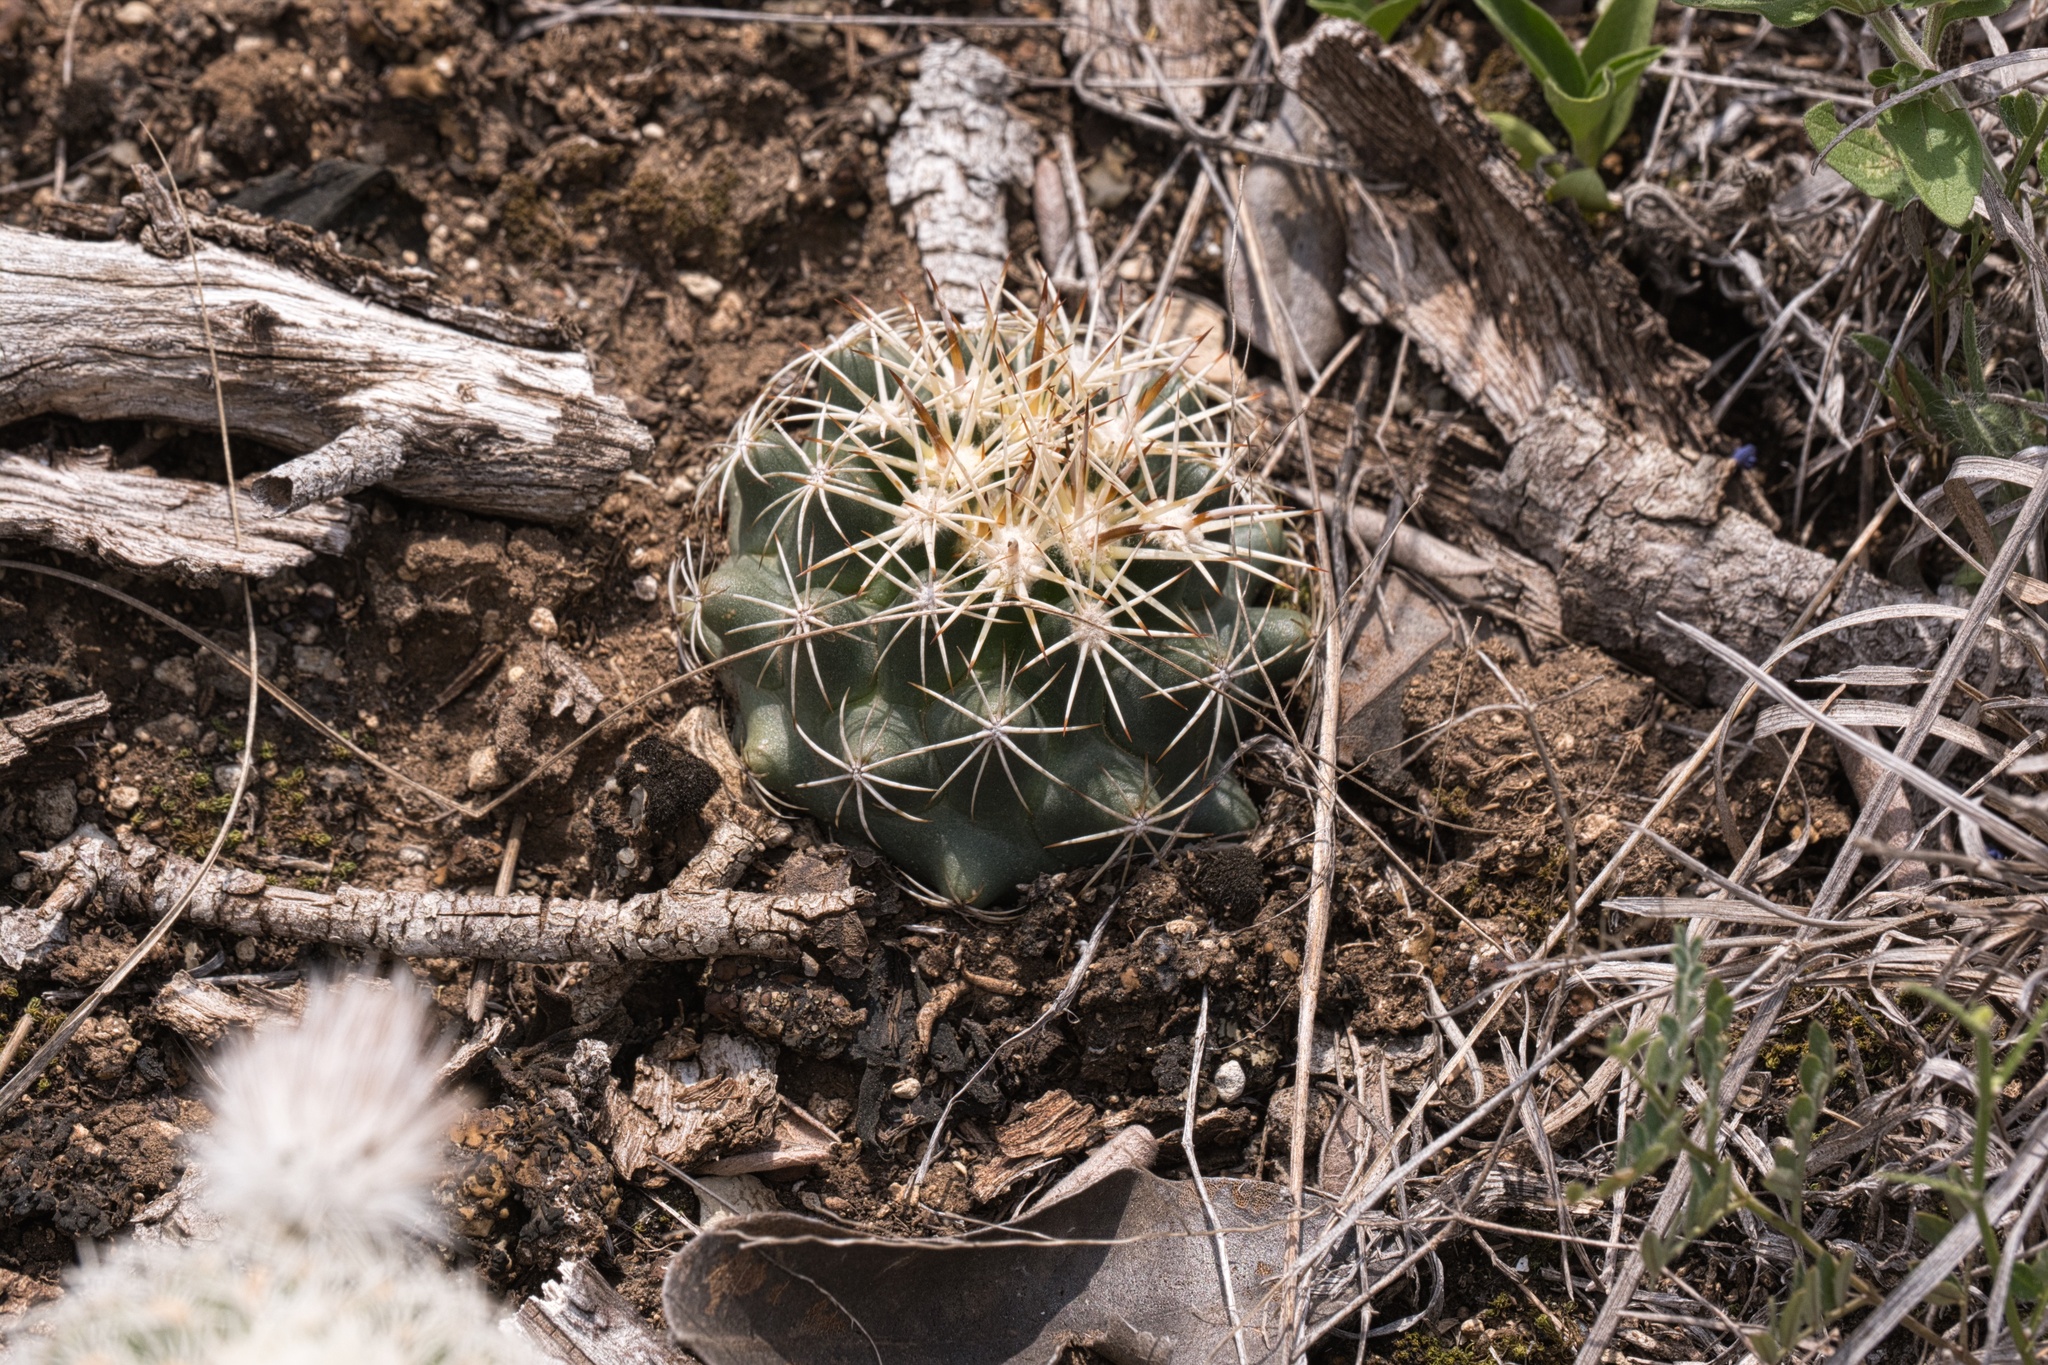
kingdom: Plantae
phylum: Tracheophyta
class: Magnoliopsida
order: Caryophyllales
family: Cactaceae
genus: Coryphantha
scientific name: Coryphantha sulcata
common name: Finger cactus
